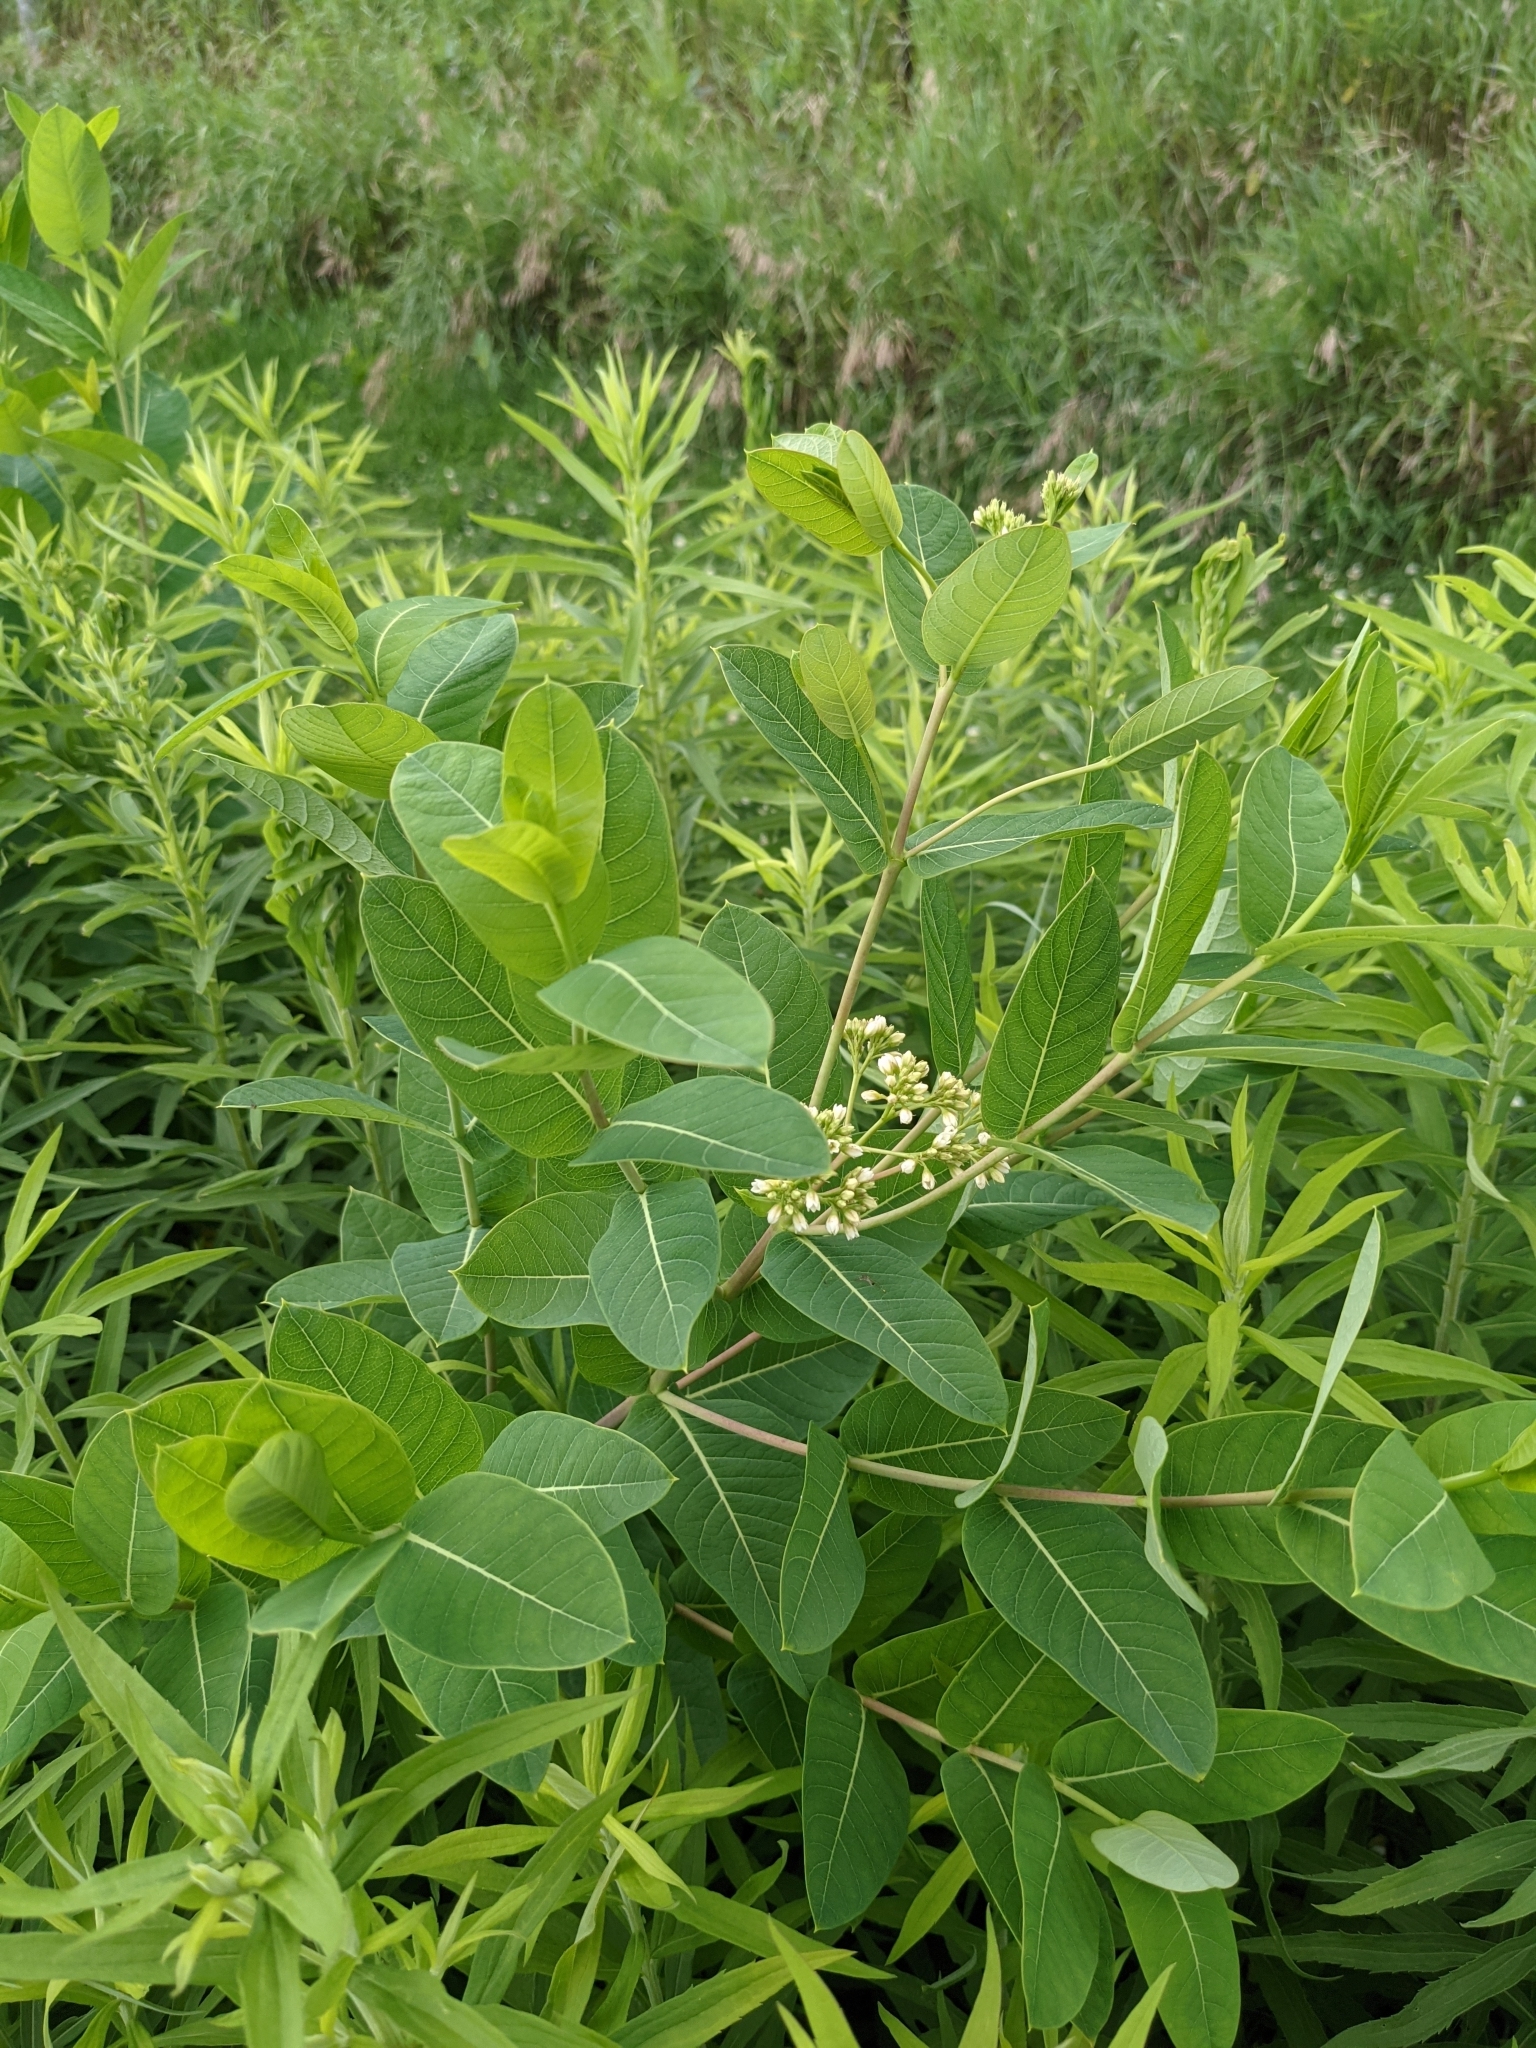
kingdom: Plantae
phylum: Tracheophyta
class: Magnoliopsida
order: Gentianales
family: Apocynaceae
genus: Apocynum
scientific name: Apocynum cannabinum
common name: Hemp dogbane
